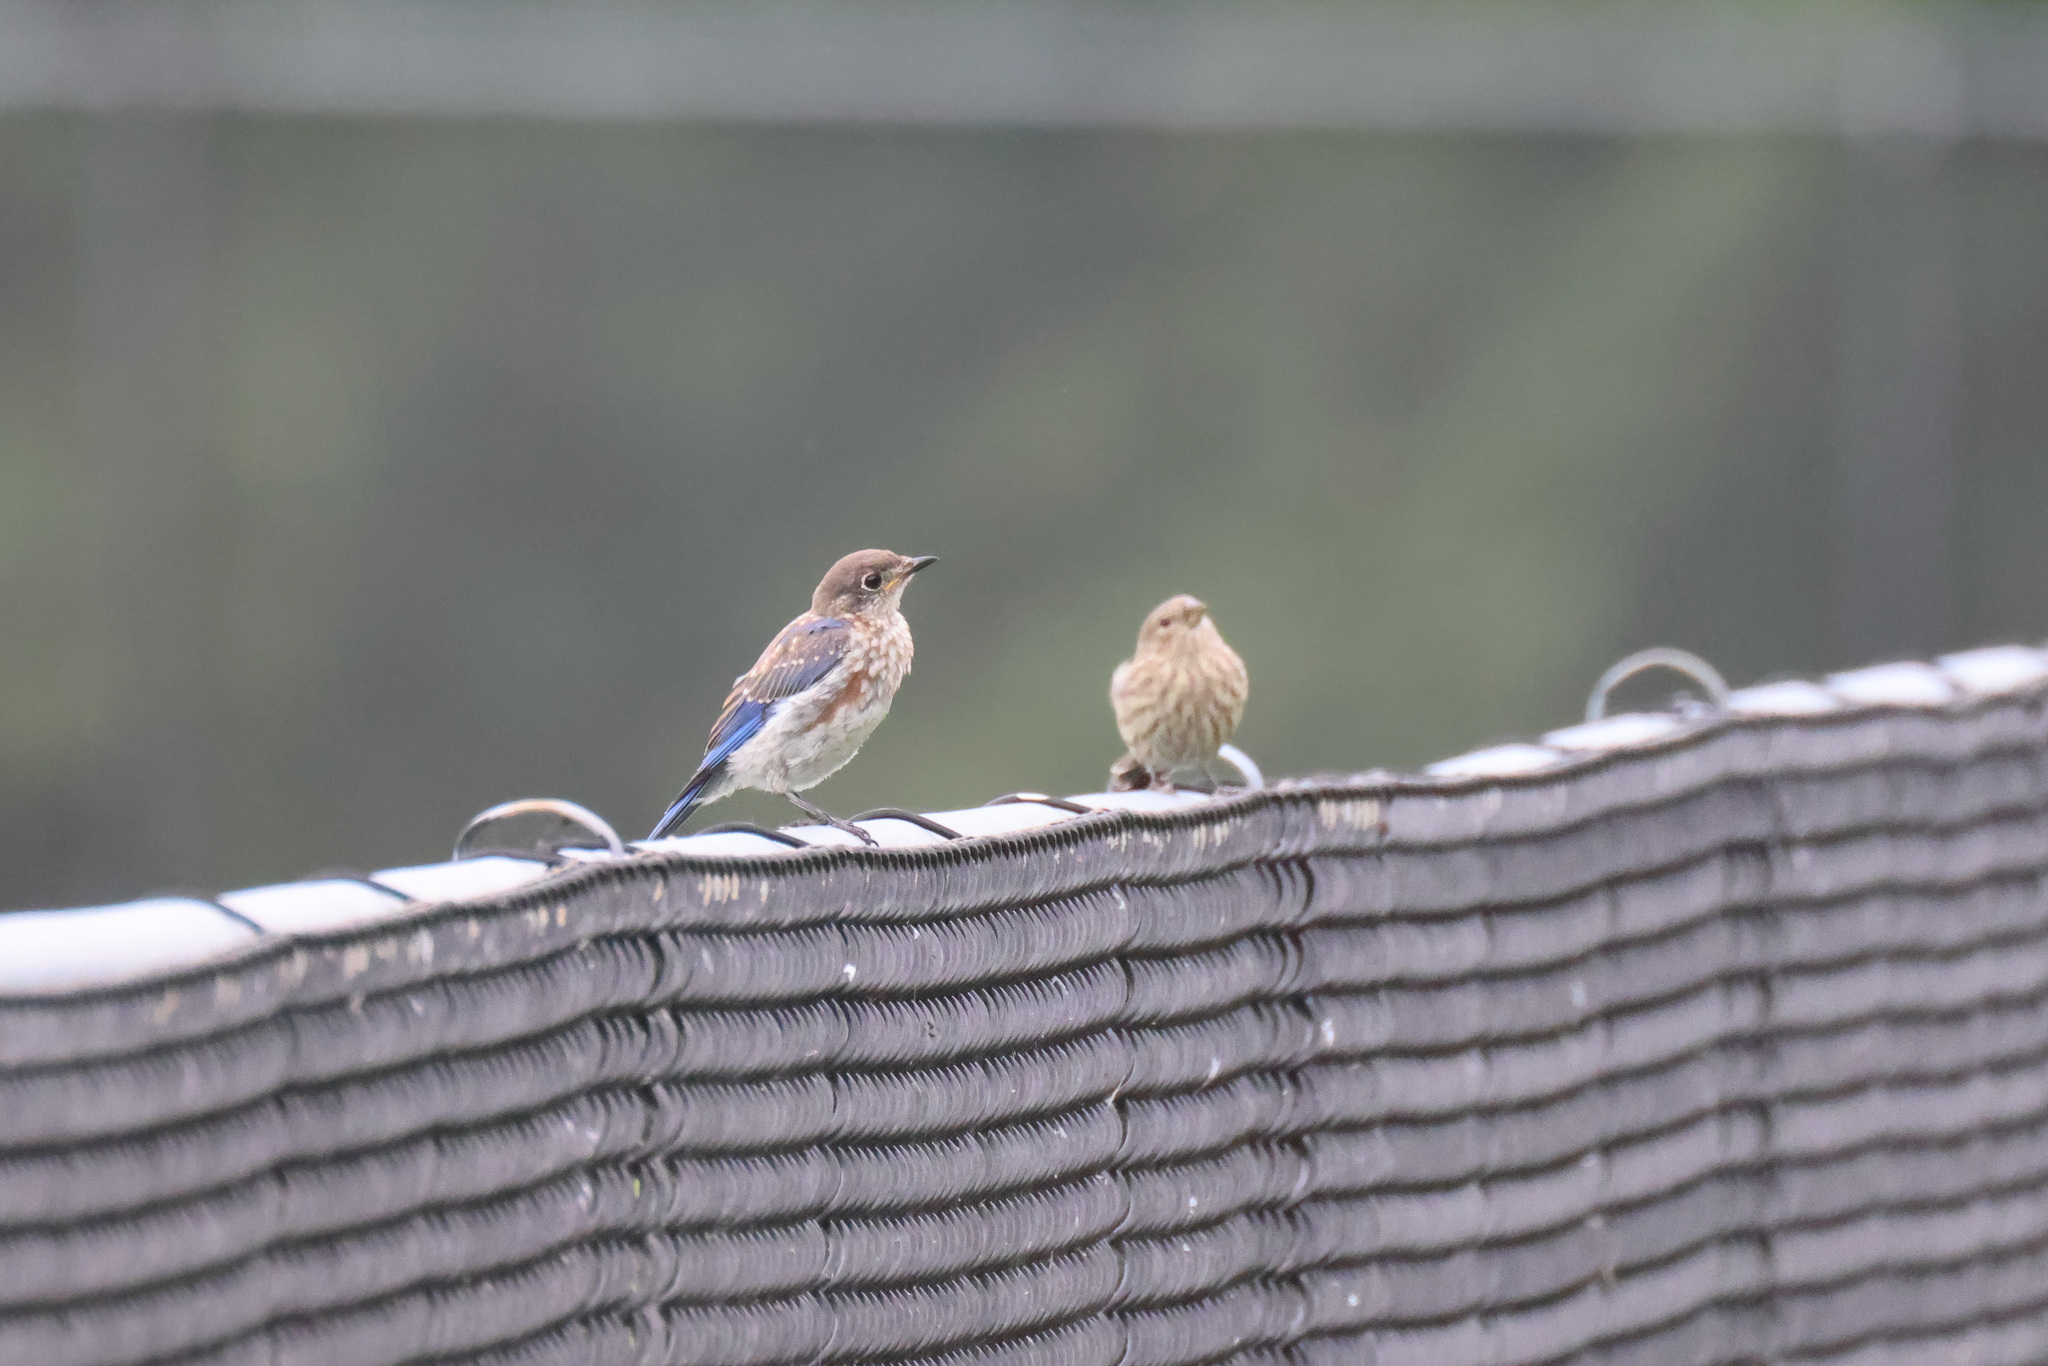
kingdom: Animalia
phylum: Chordata
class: Aves
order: Passeriformes
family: Fringillidae
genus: Haemorhous
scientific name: Haemorhous mexicanus
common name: House finch
